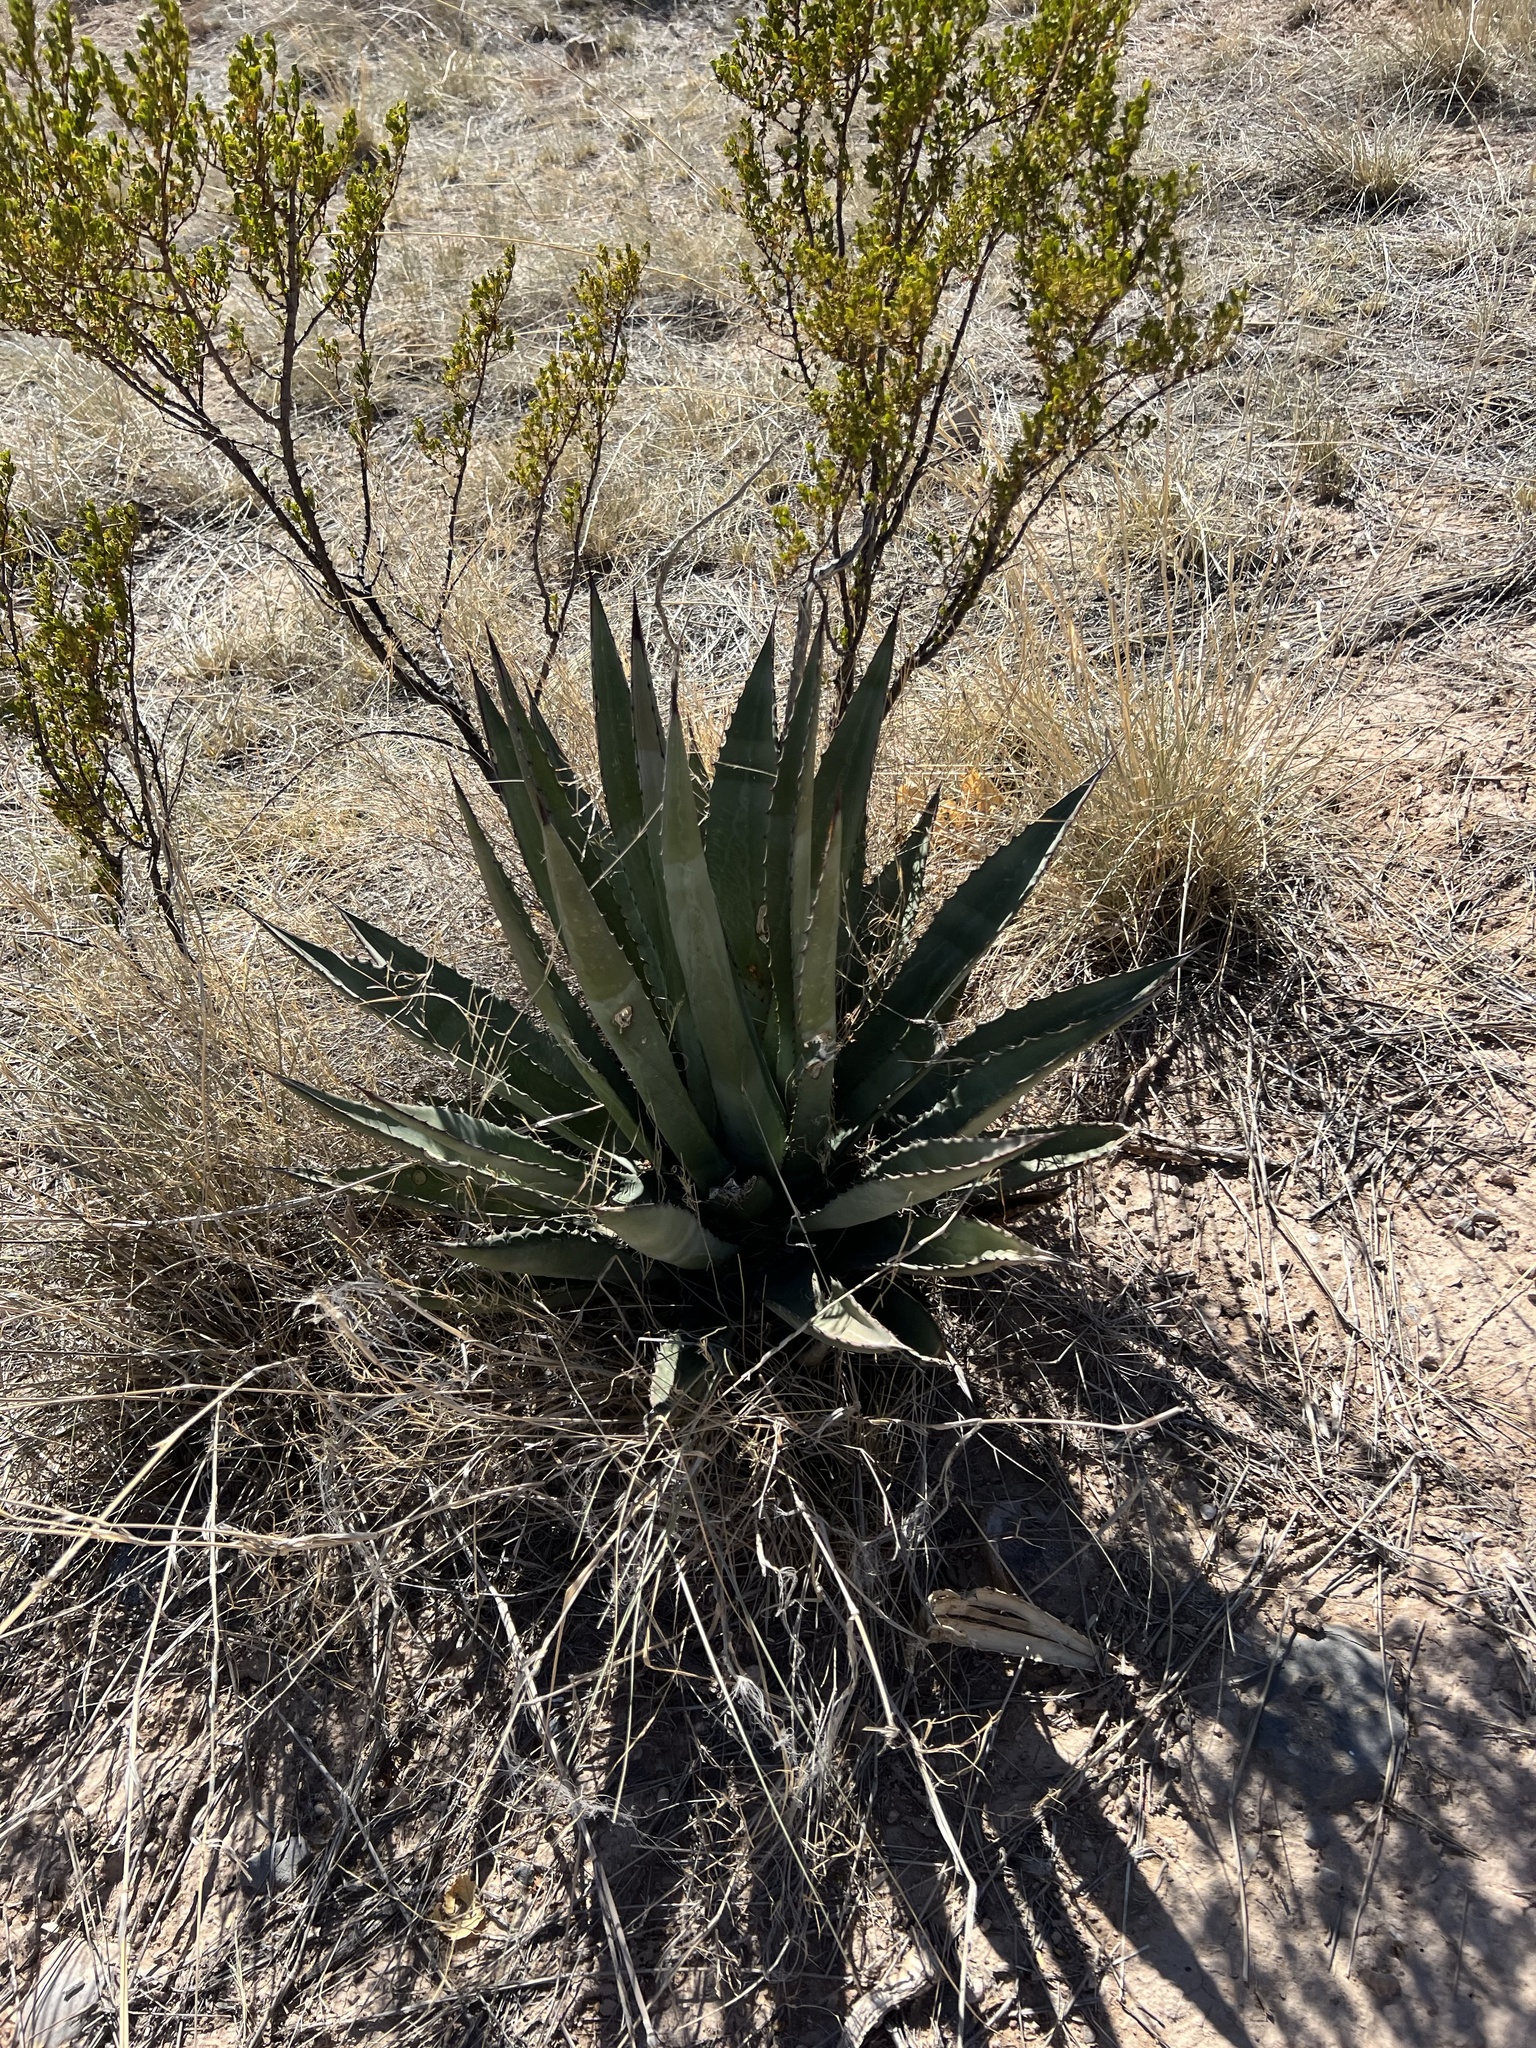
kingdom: Plantae
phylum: Tracheophyta
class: Liliopsida
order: Asparagales
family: Asparagaceae
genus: Agave
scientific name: Agave palmeri
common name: Palmer agave
